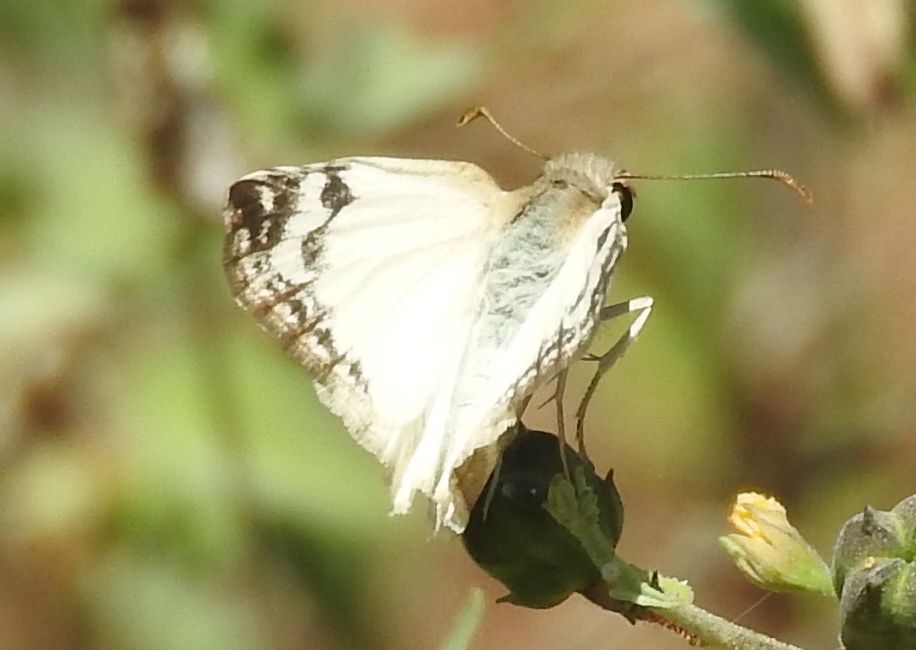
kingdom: Animalia
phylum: Arthropoda
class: Insecta
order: Lepidoptera
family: Hesperiidae
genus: Heliopetes
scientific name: Heliopetes laviana
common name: Laviana white-skipper
